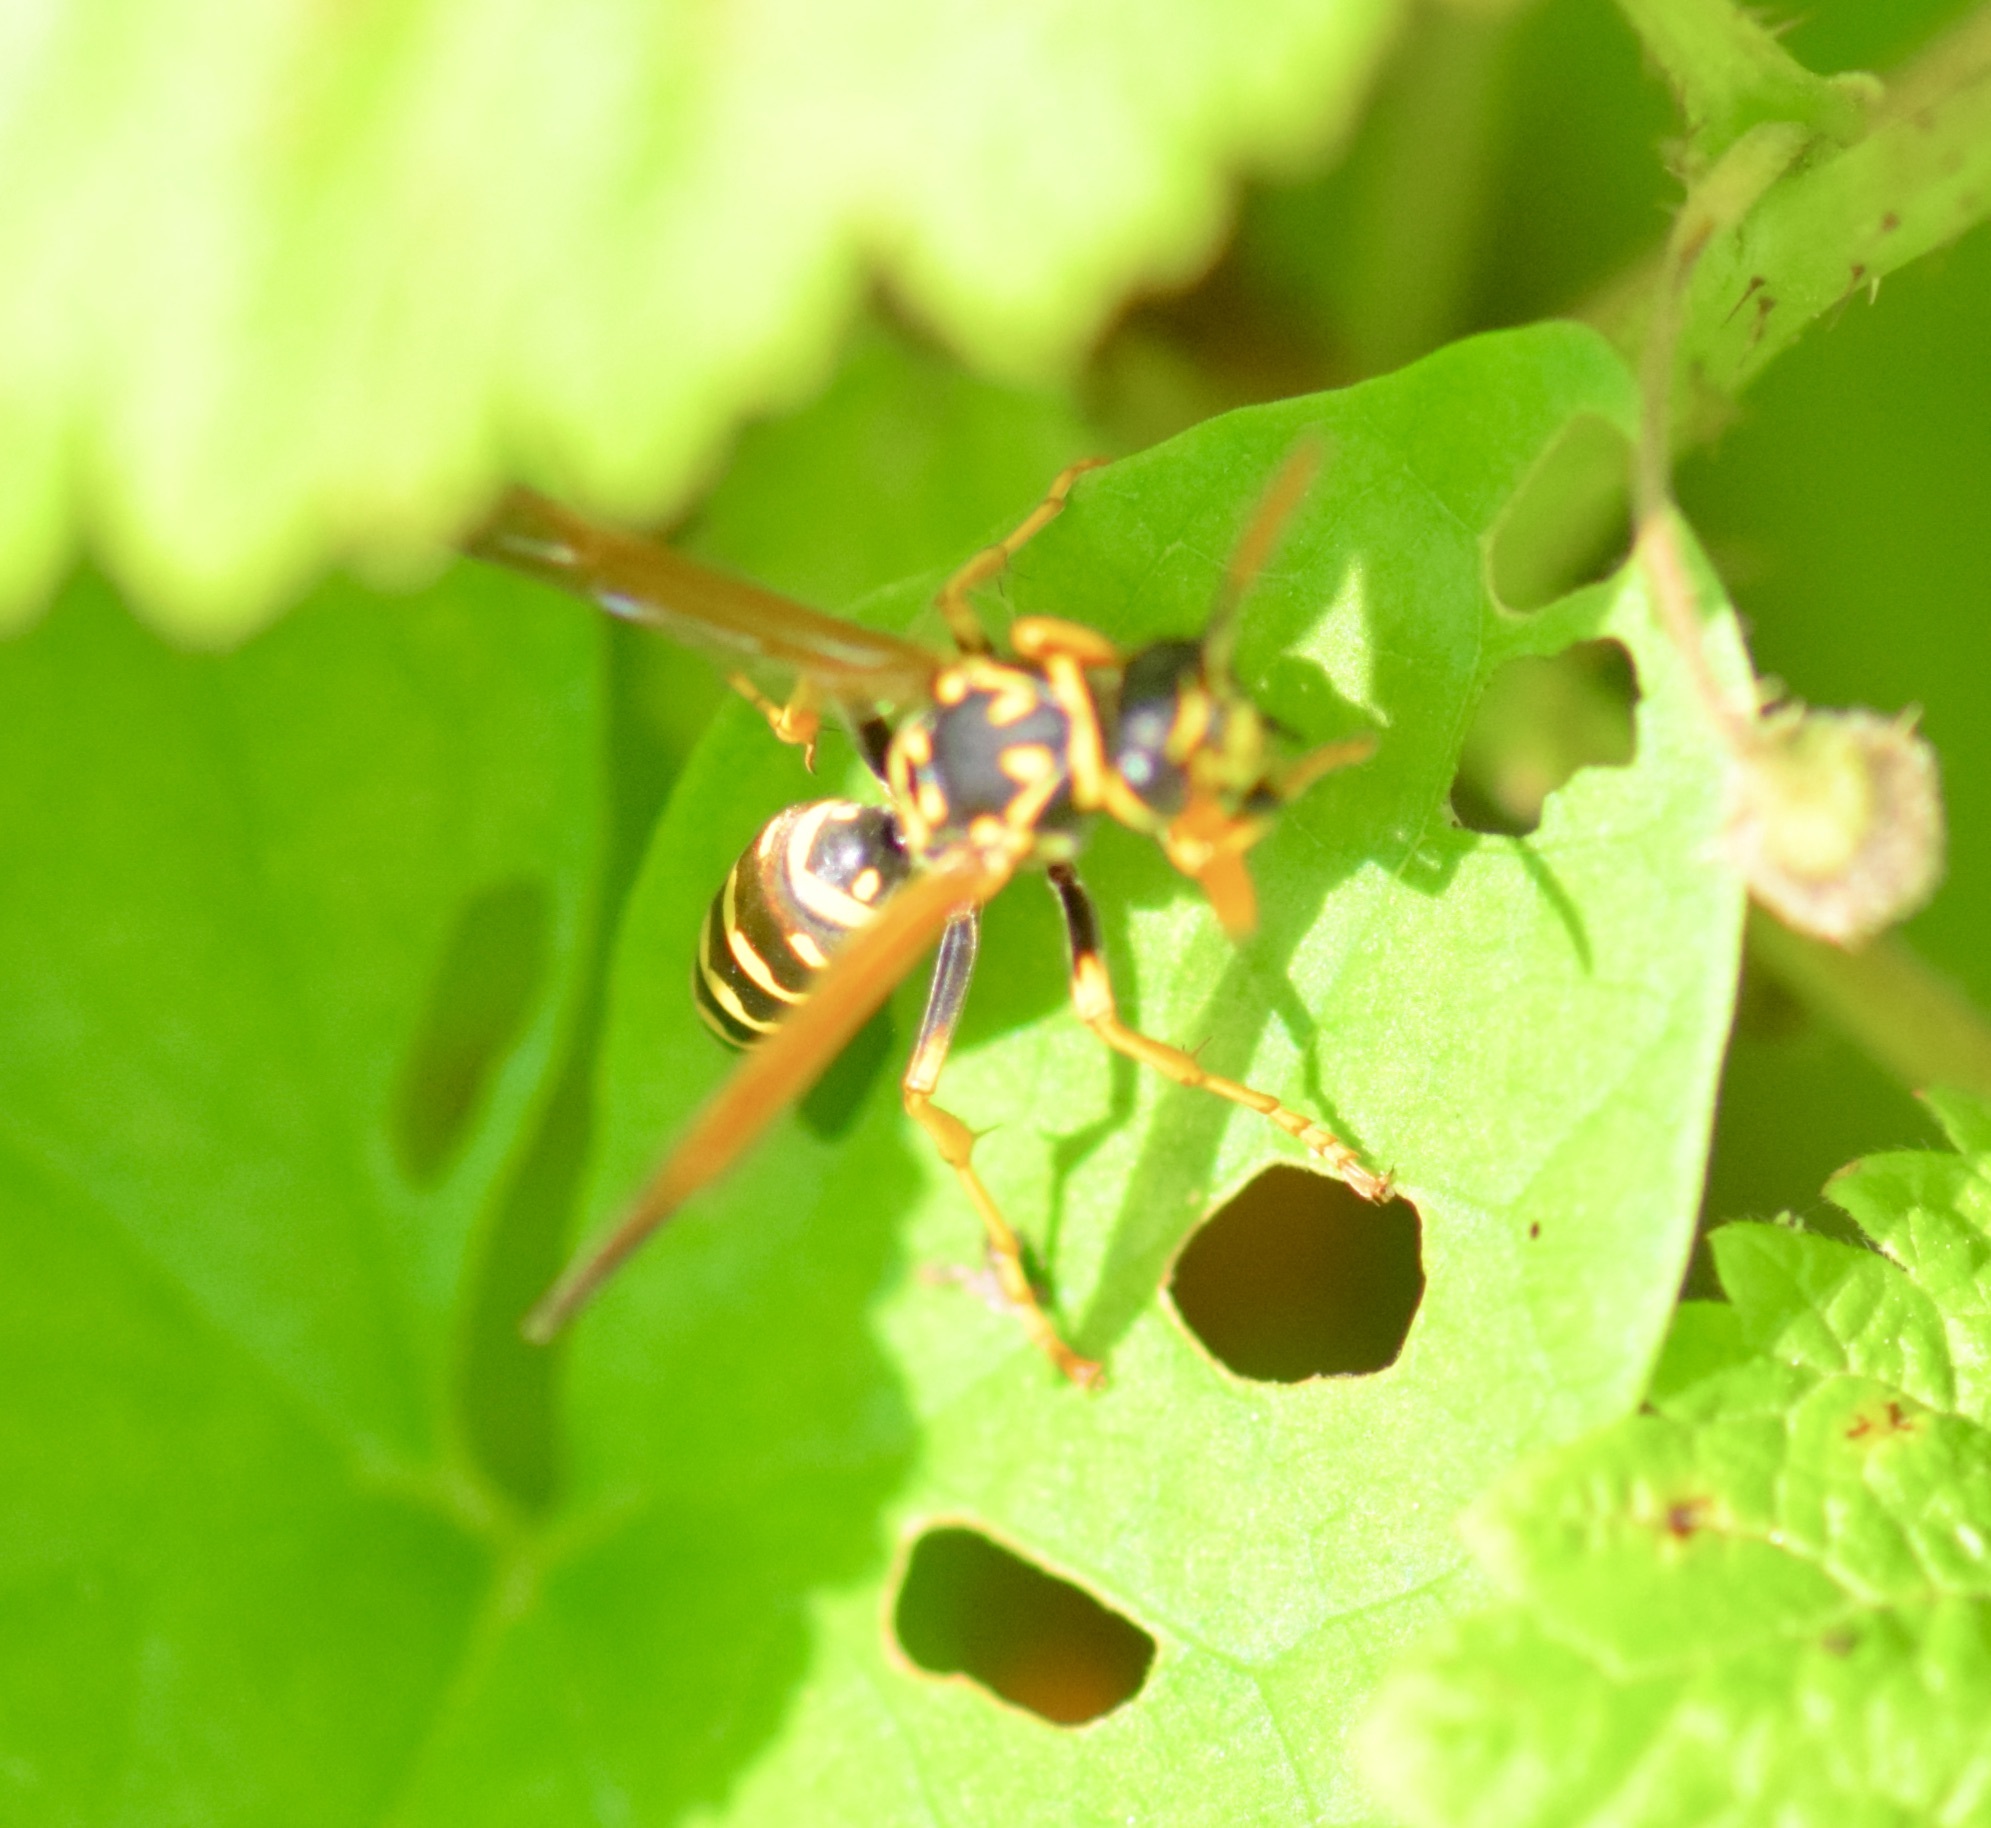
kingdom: Animalia
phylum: Arthropoda
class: Insecta
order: Hymenoptera
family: Eumenidae
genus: Polistes
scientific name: Polistes dominula
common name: Paper wasp
